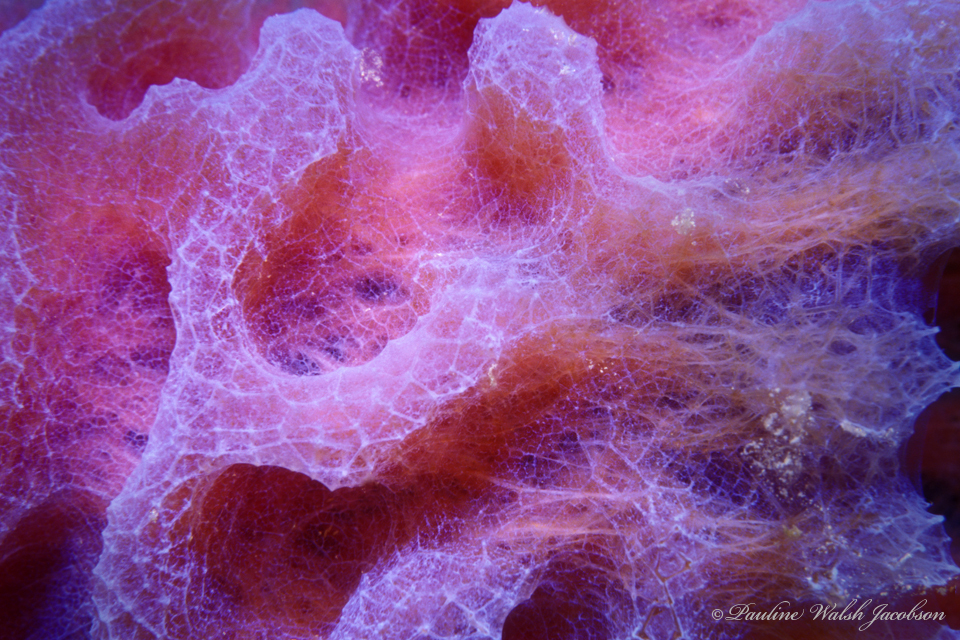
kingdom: Animalia
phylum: Porifera
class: Demospongiae
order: Haplosclerida
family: Callyspongiidae
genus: Callyspongia
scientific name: Callyspongia plicifera
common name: Azure vase sponge
